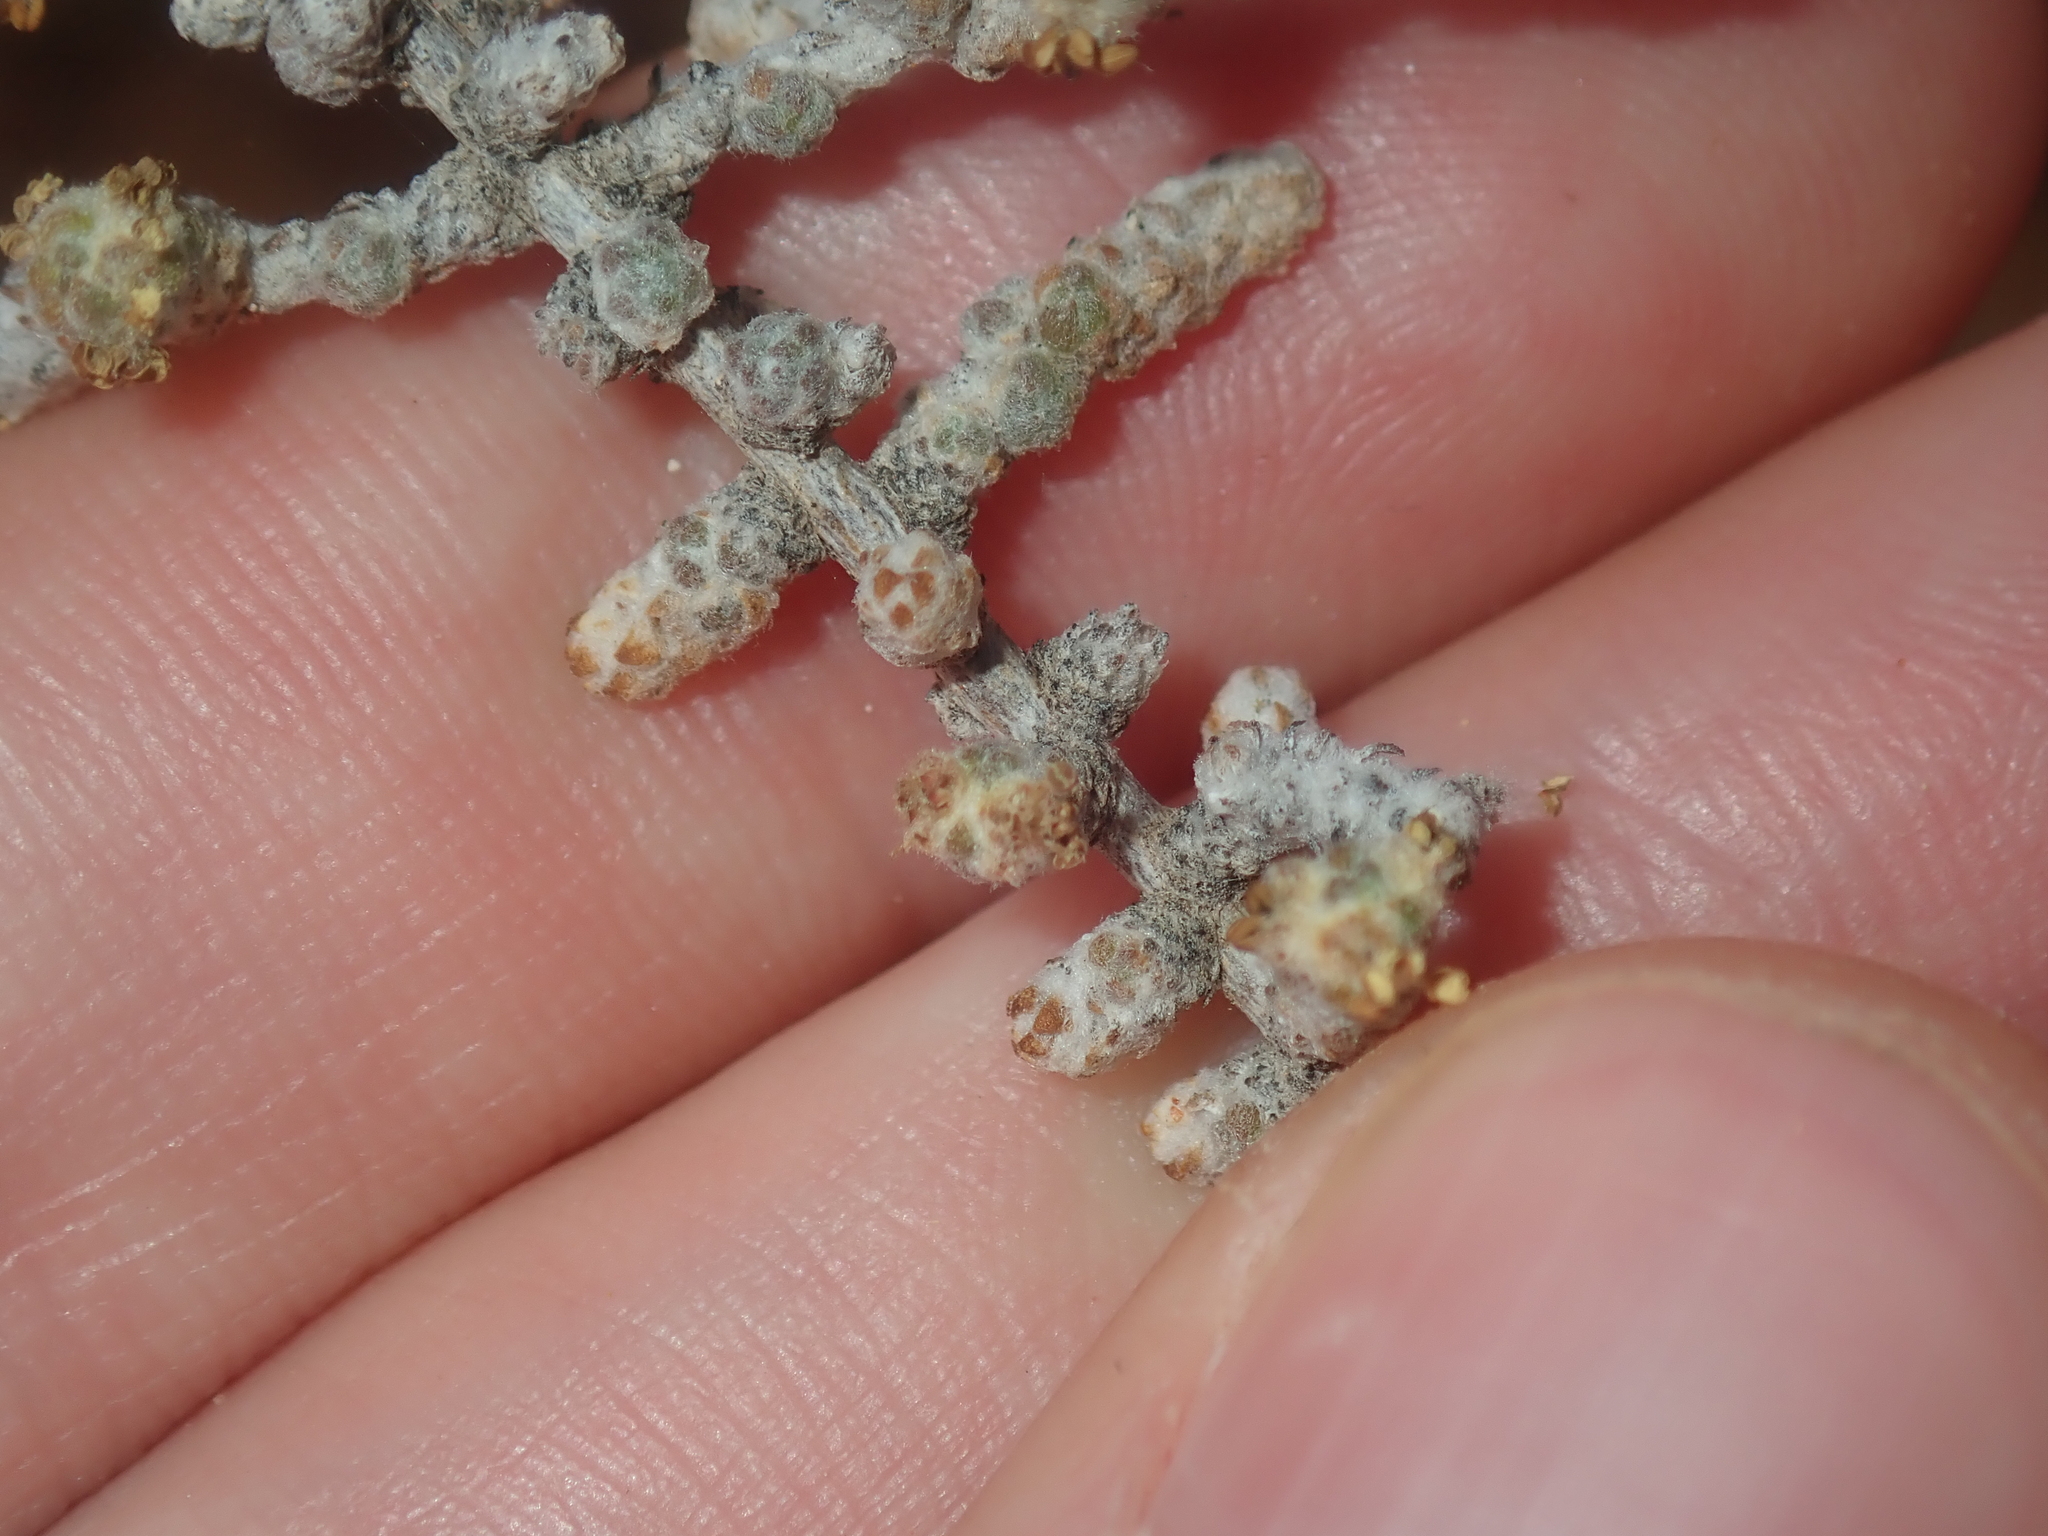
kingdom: Plantae
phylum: Tracheophyta
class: Magnoliopsida
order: Caryophyllales
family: Amaranthaceae
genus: Maireana
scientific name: Maireana glomerifolia
